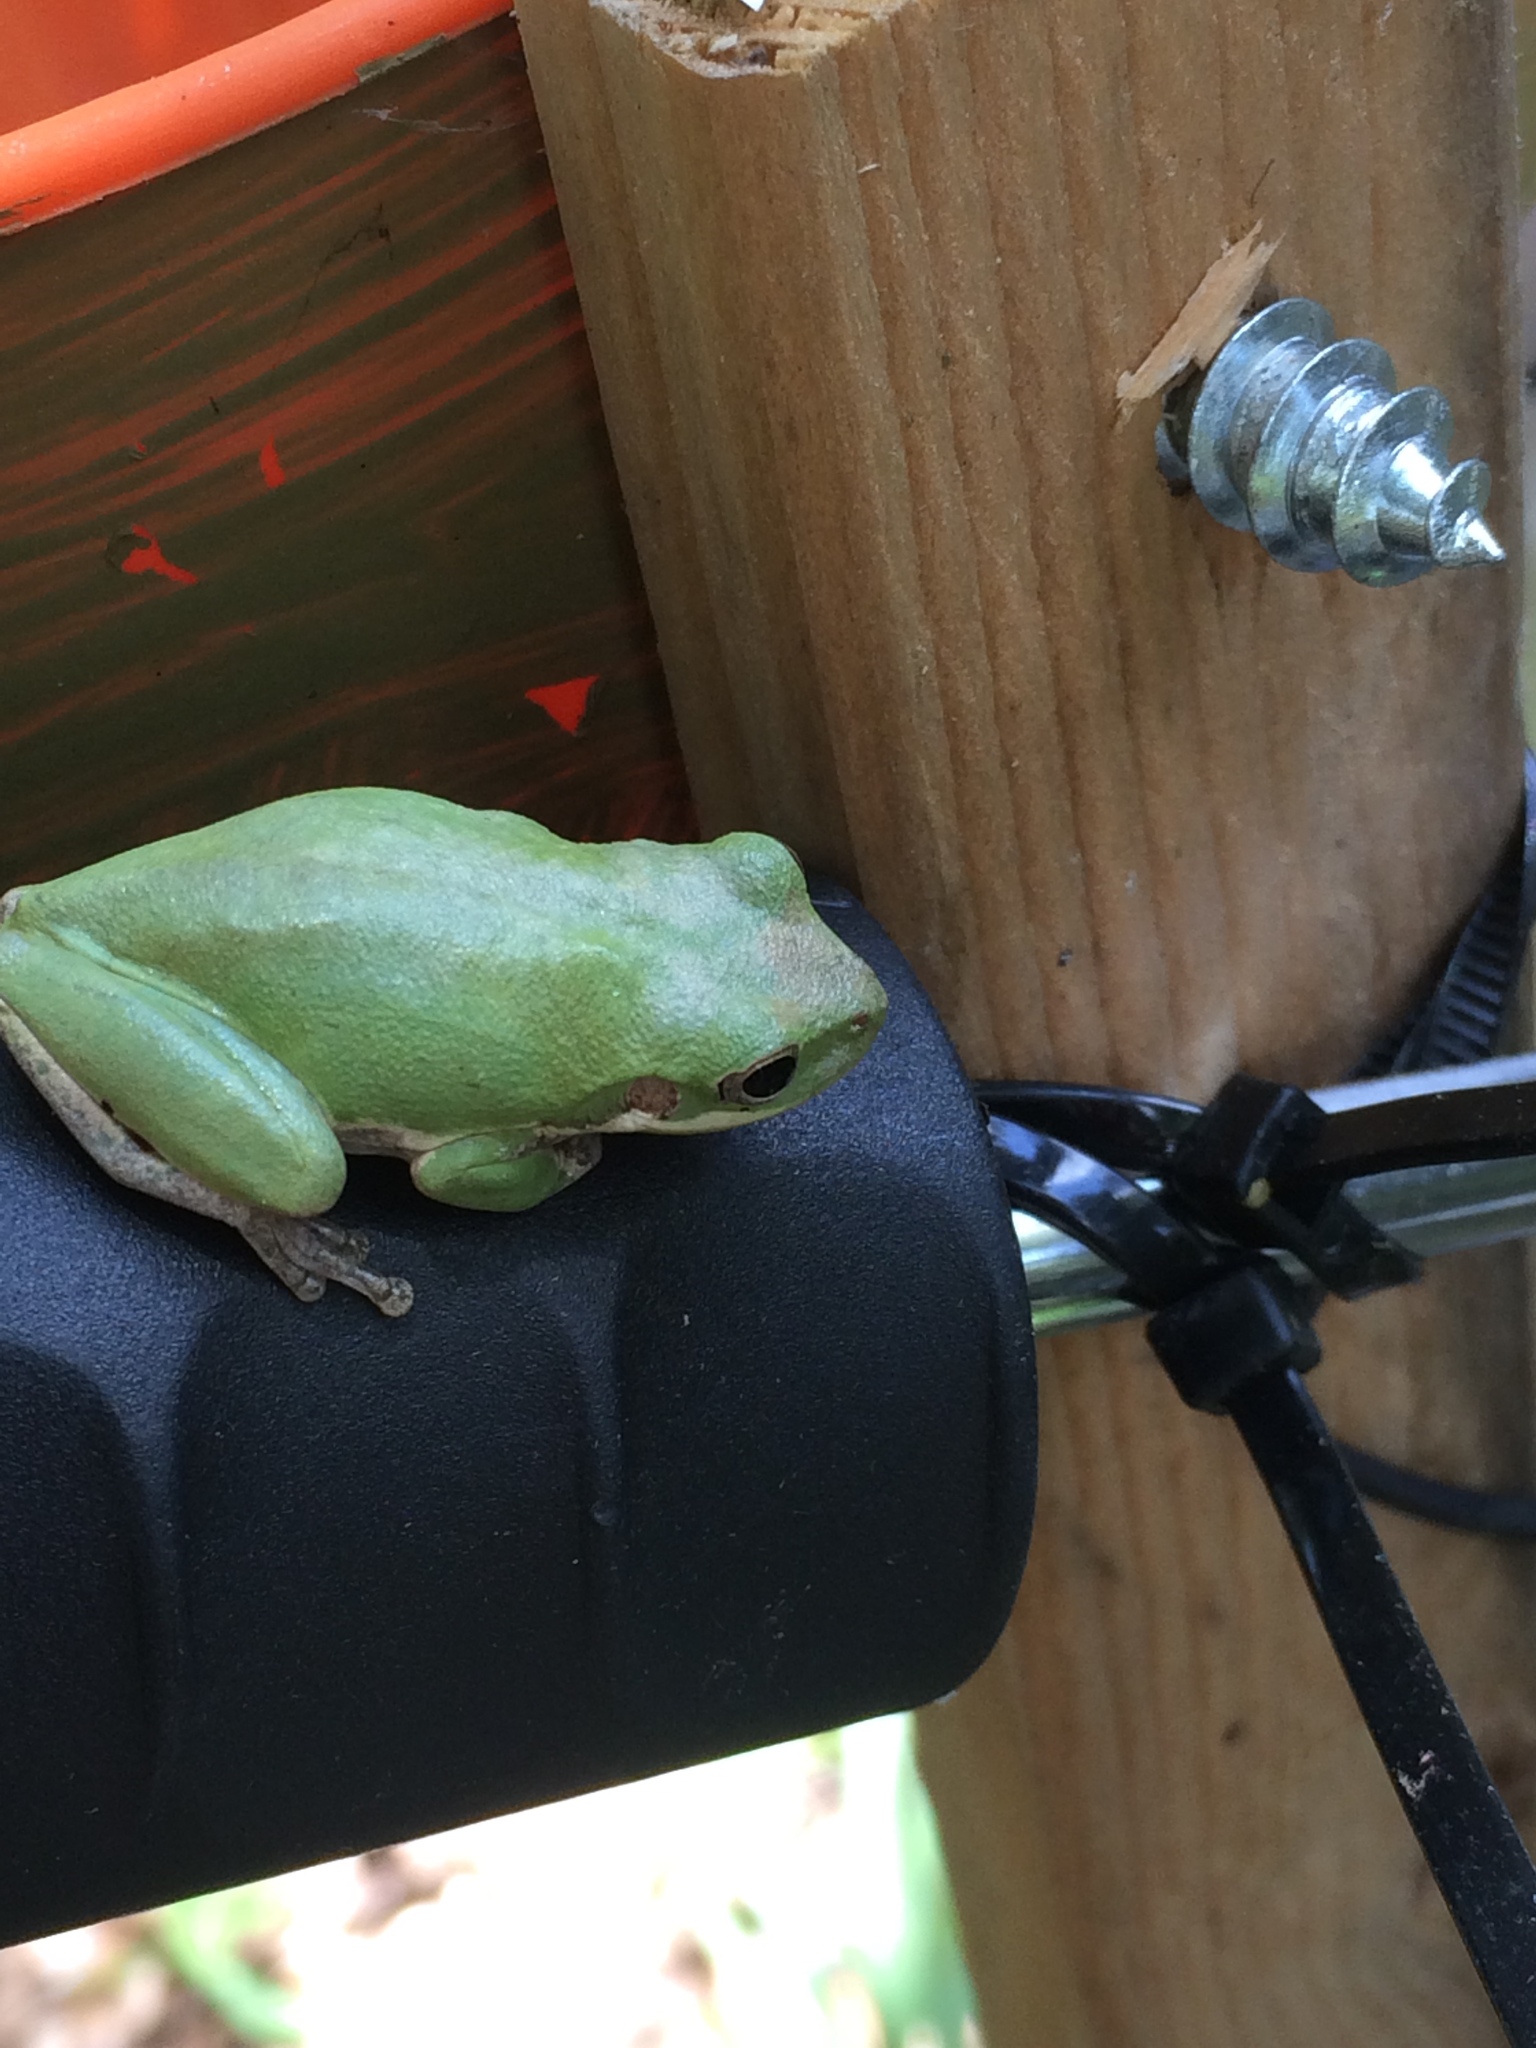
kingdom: Animalia
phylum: Chordata
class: Amphibia
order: Anura
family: Hylidae
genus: Dryophytes
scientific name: Dryophytes squirellus
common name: Squirrel treefrog
